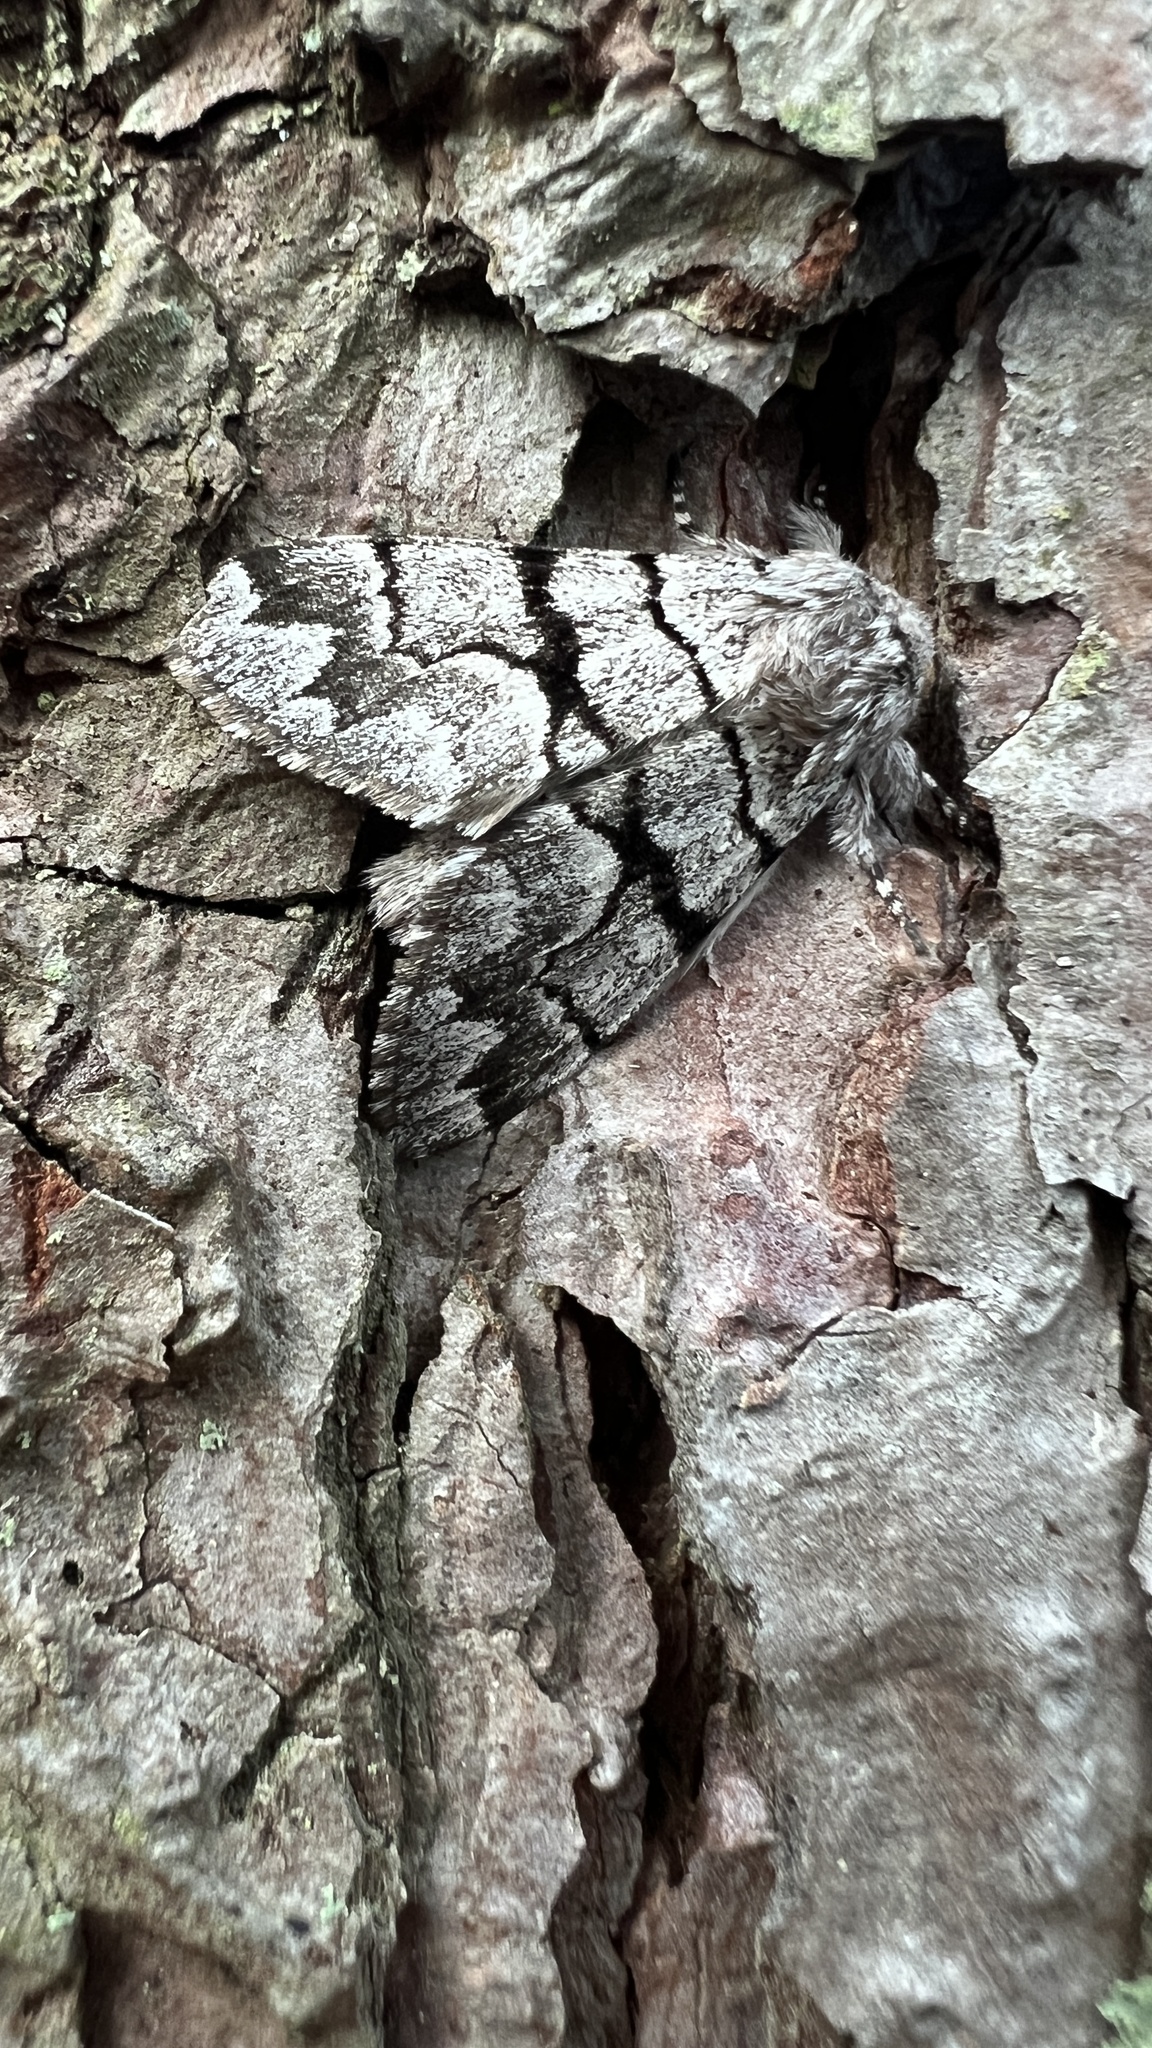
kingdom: Animalia
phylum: Arthropoda
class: Insecta
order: Lepidoptera
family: Noctuidae
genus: Panthea
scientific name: Panthea furcilla
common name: Eastern panthea moth
